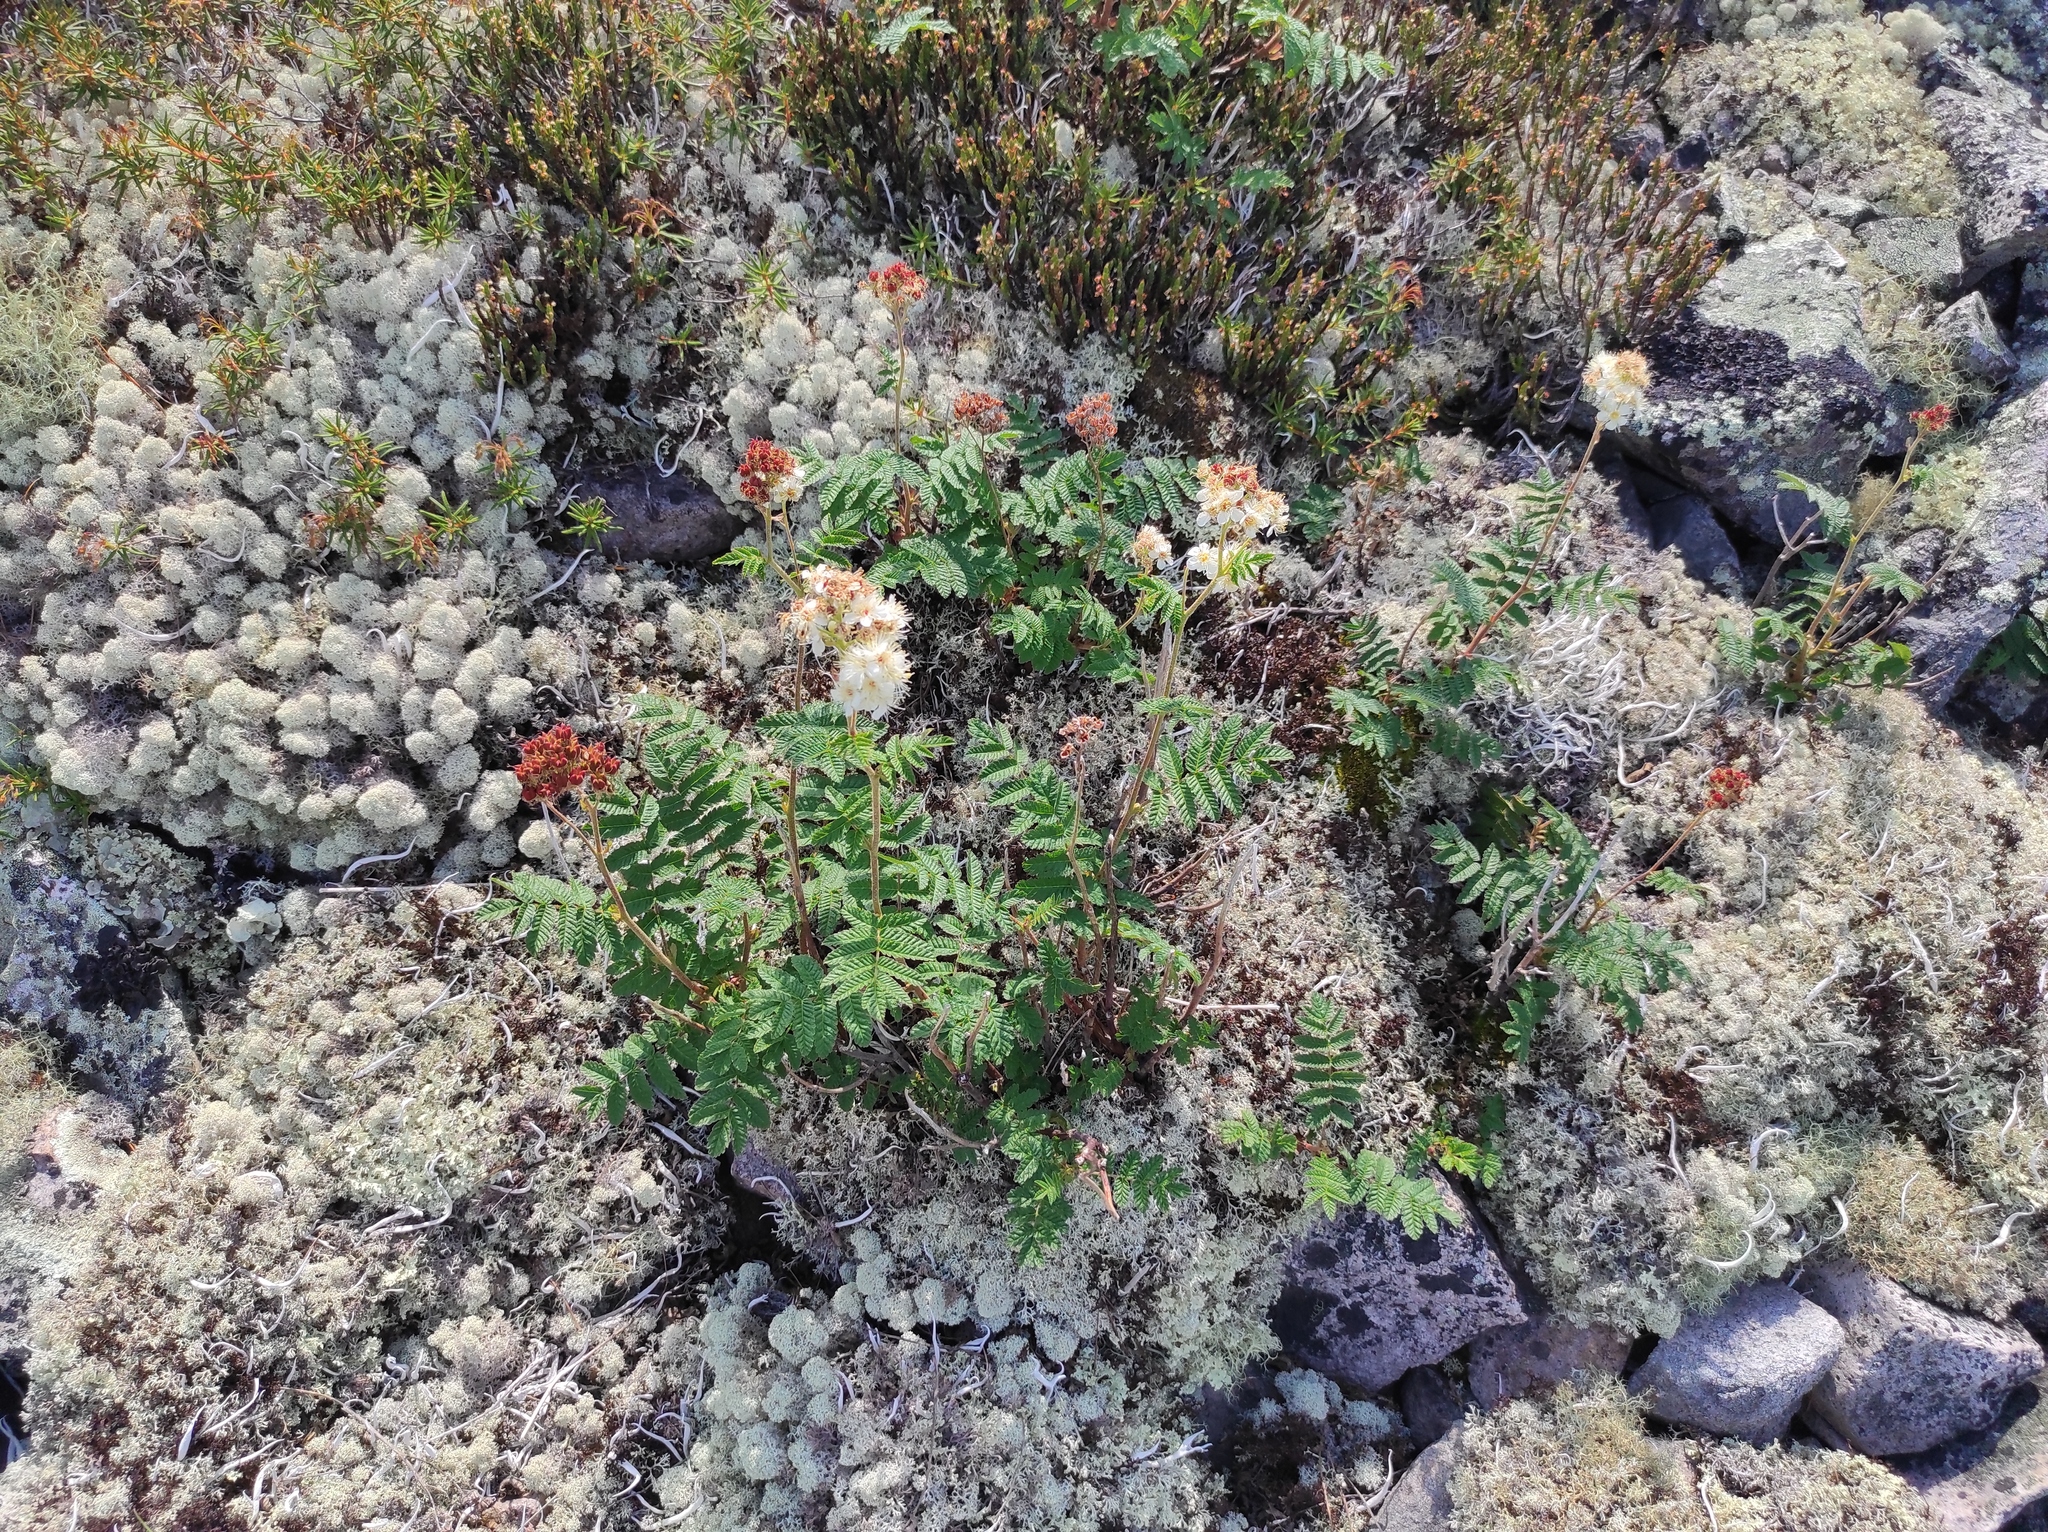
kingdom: Plantae
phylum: Tracheophyta
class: Magnoliopsida
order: Ericales
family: Ericaceae
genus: Cassiope
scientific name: Cassiope tetragona
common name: Arctic bell heather
